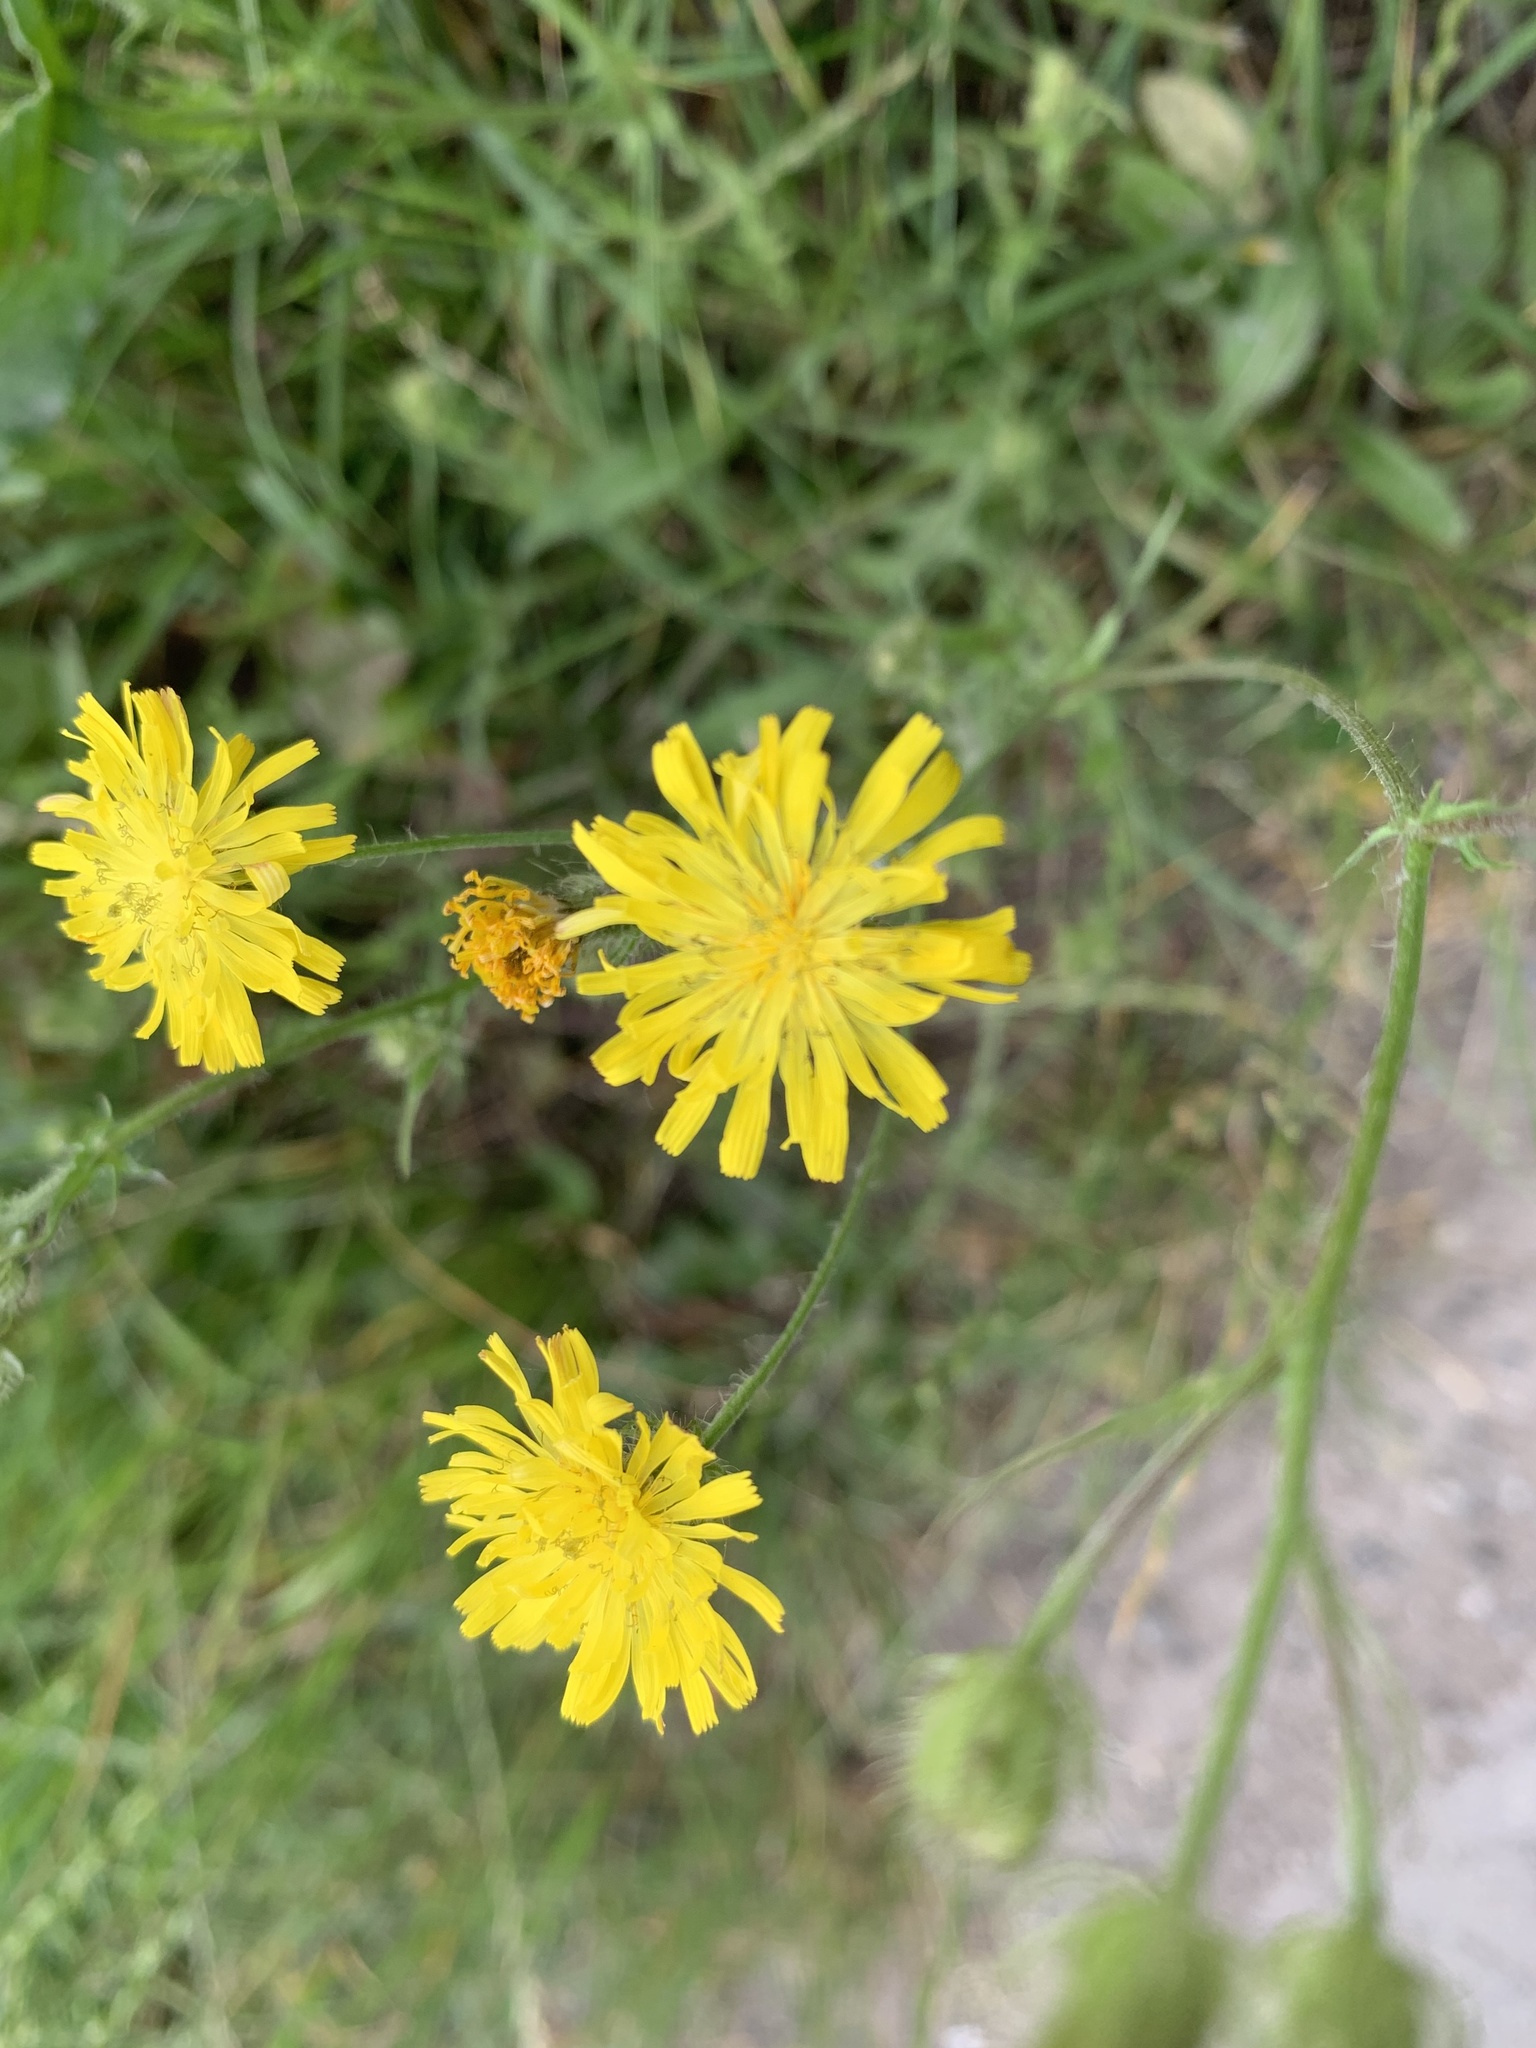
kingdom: Plantae
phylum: Tracheophyta
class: Magnoliopsida
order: Asterales
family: Asteraceae
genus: Crepis
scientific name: Crepis capillaris
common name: Smooth hawksbeard
